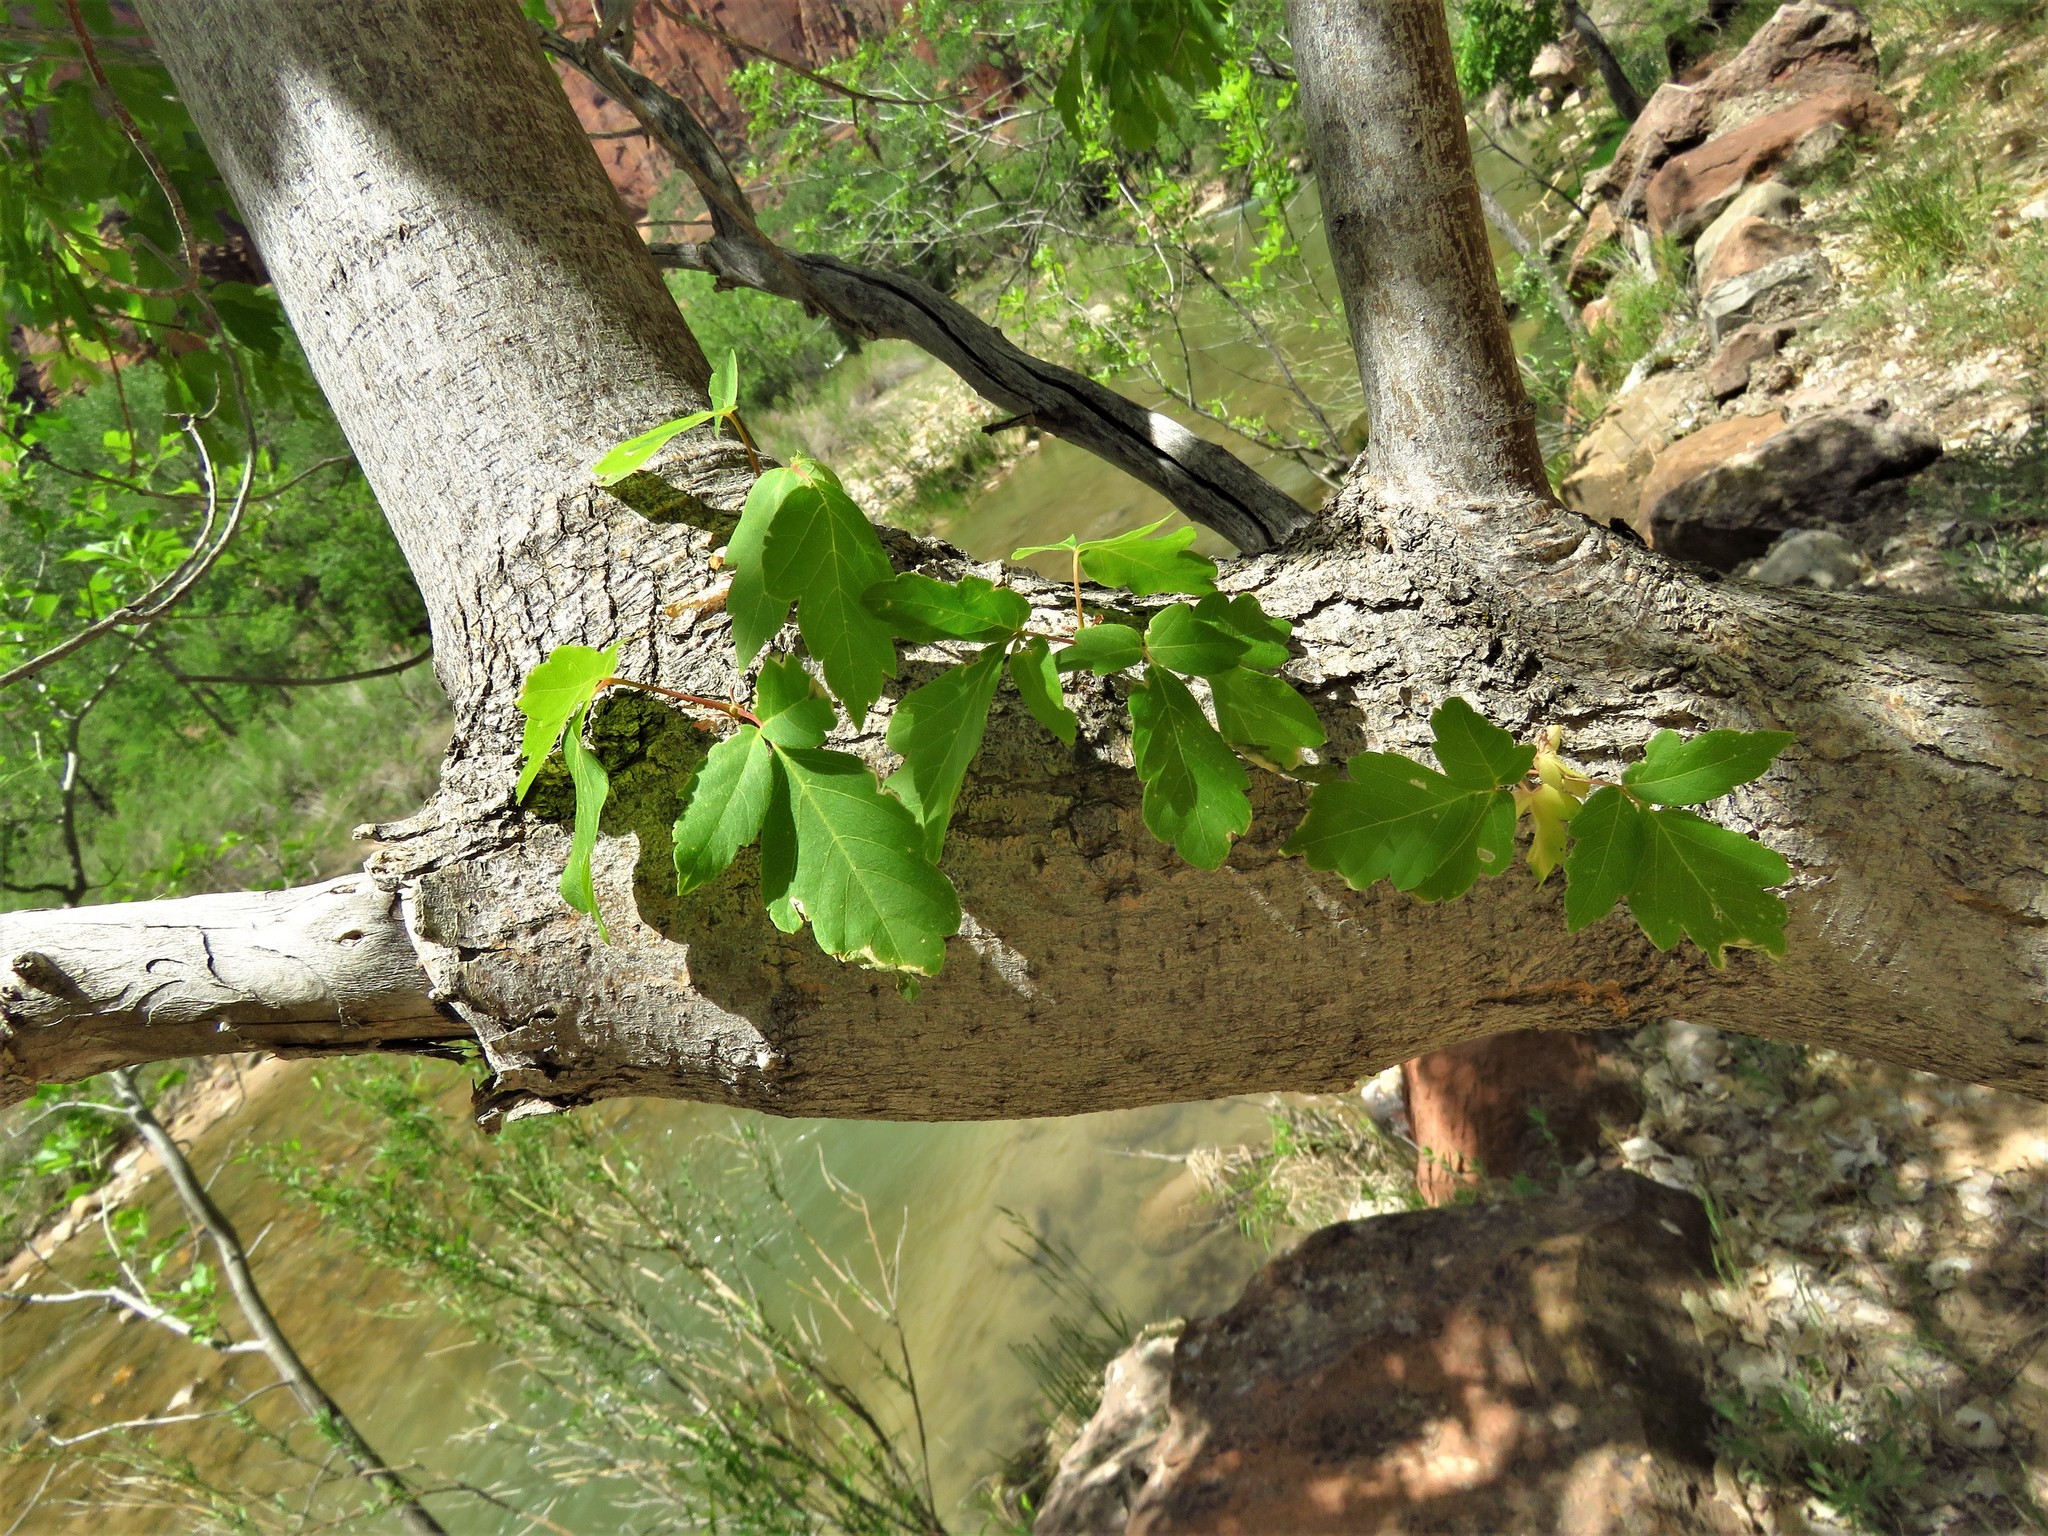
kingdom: Plantae
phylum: Tracheophyta
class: Magnoliopsida
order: Sapindales
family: Sapindaceae
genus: Acer
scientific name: Acer negundo
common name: Ashleaf maple
